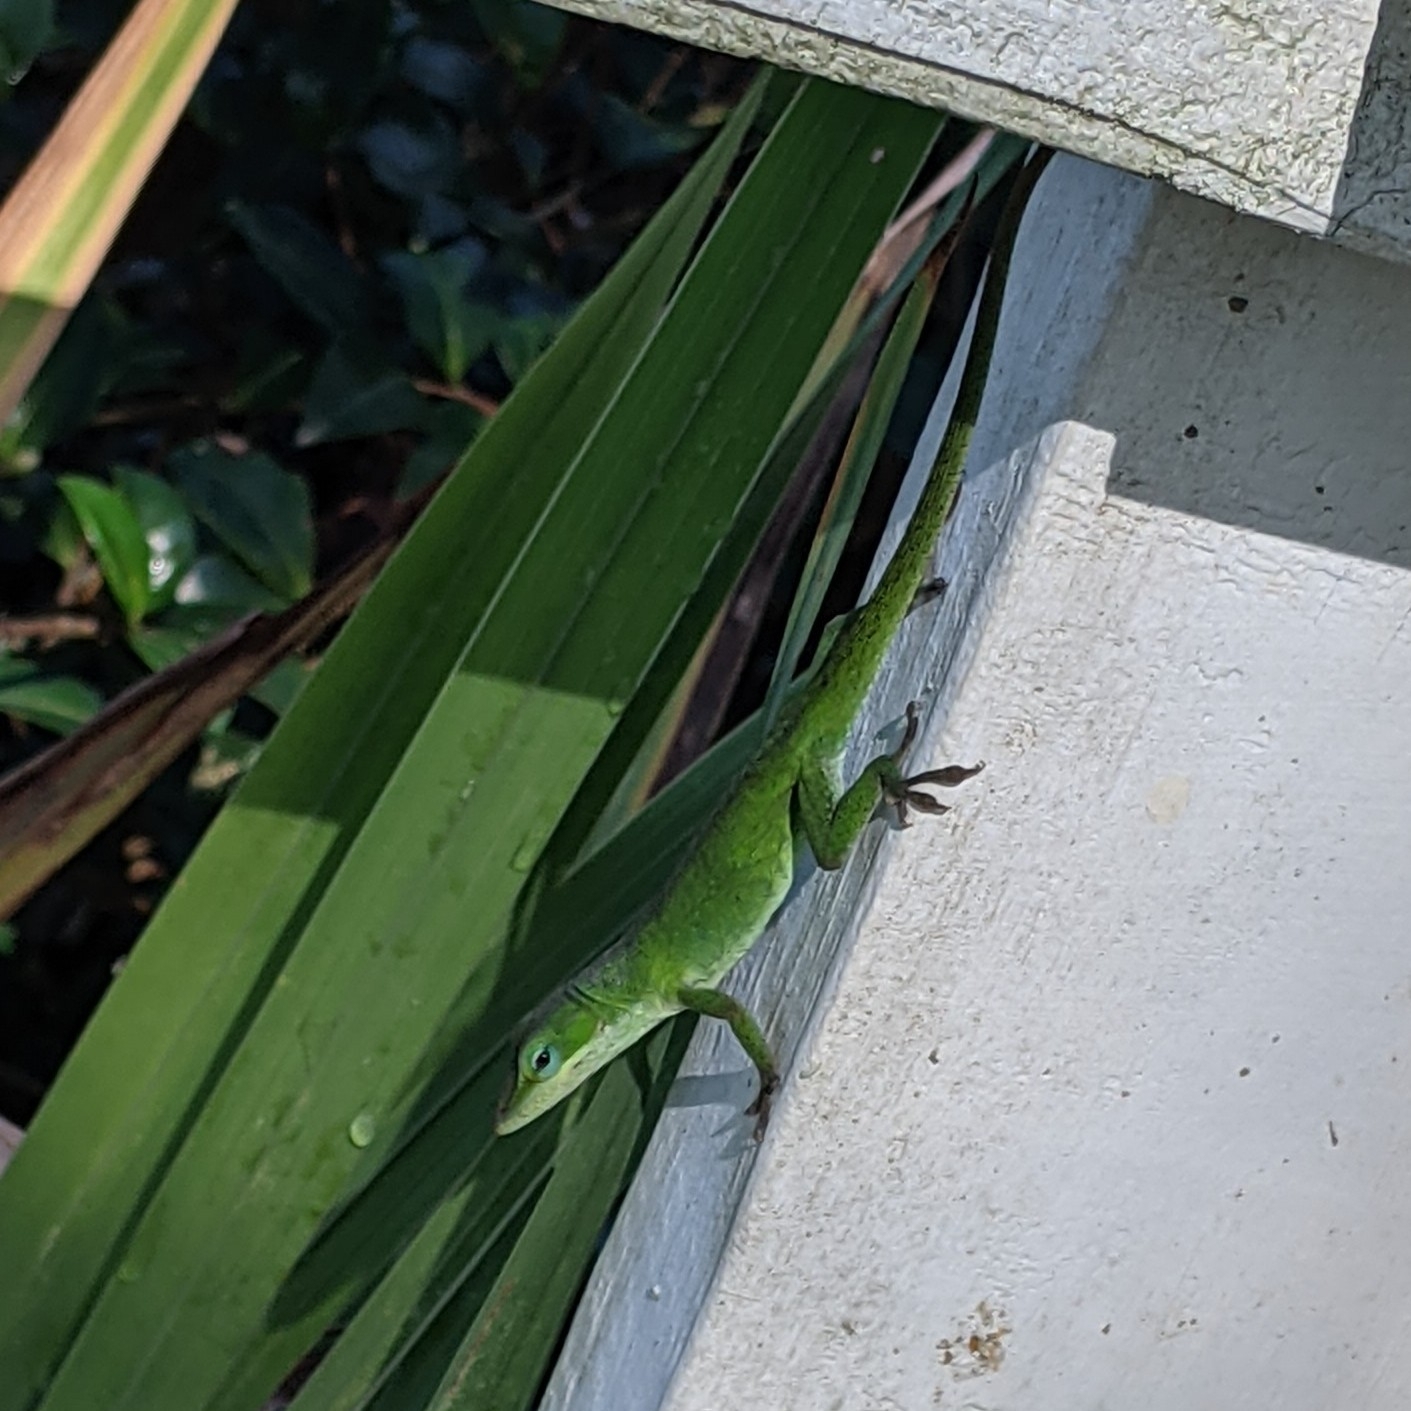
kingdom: Animalia
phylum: Chordata
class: Squamata
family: Dactyloidae
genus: Anolis
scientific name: Anolis carolinensis
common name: Green anole
